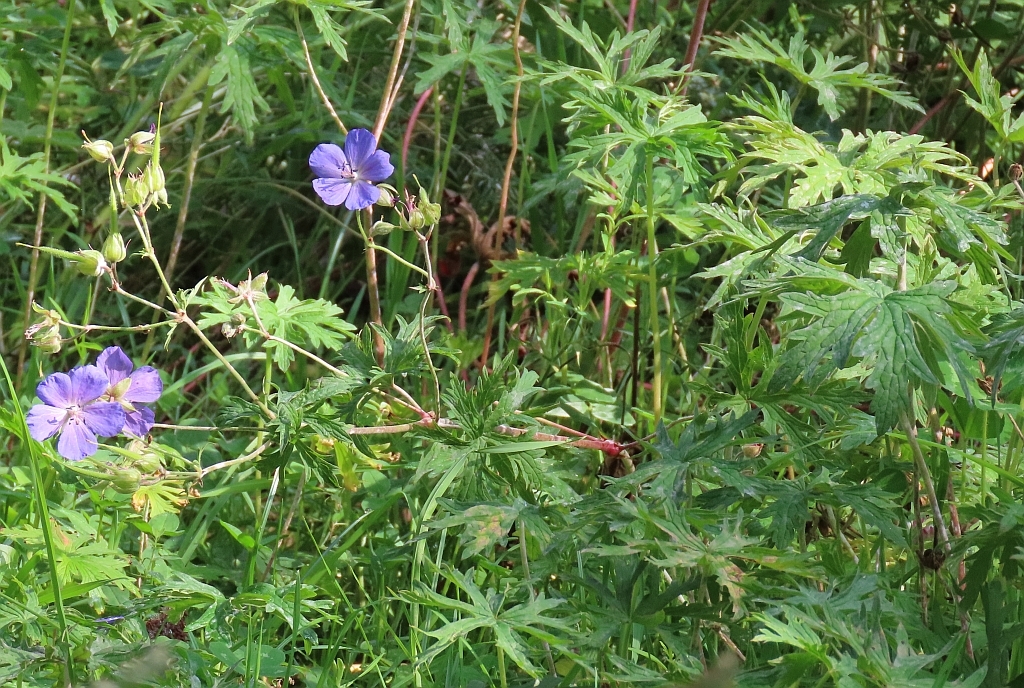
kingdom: Plantae
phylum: Tracheophyta
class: Magnoliopsida
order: Geraniales
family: Geraniaceae
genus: Geranium
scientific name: Geranium pratense
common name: Meadow crane's-bill
